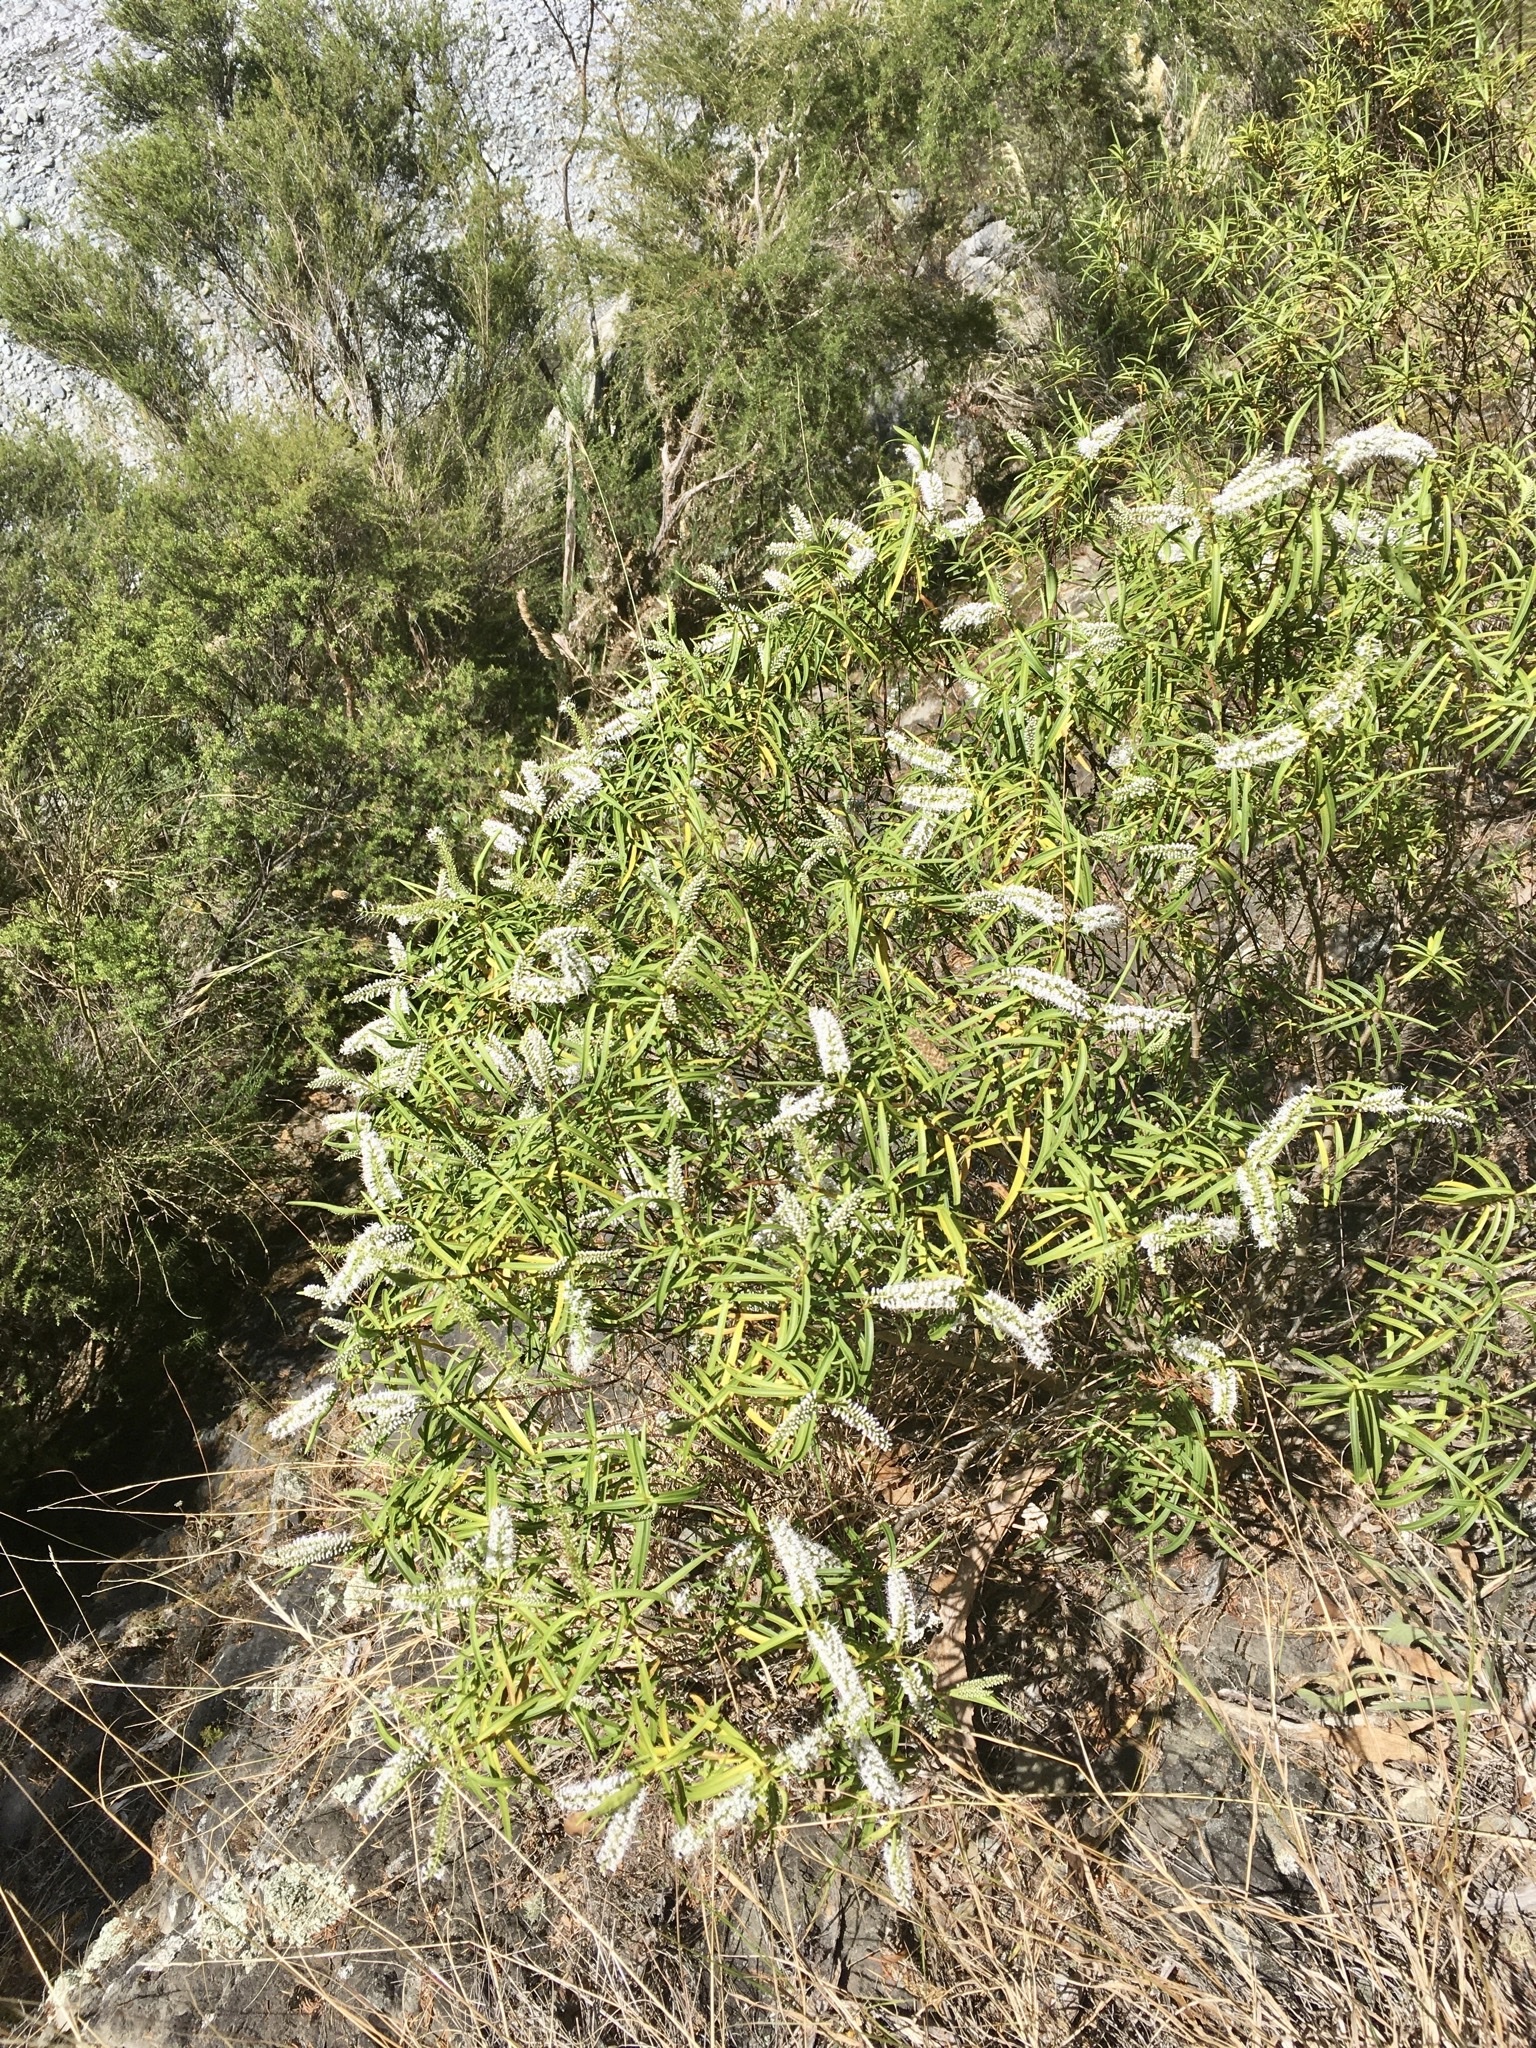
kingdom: Plantae
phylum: Tracheophyta
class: Magnoliopsida
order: Lamiales
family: Plantaginaceae
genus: Veronica
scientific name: Veronica stenophylla
